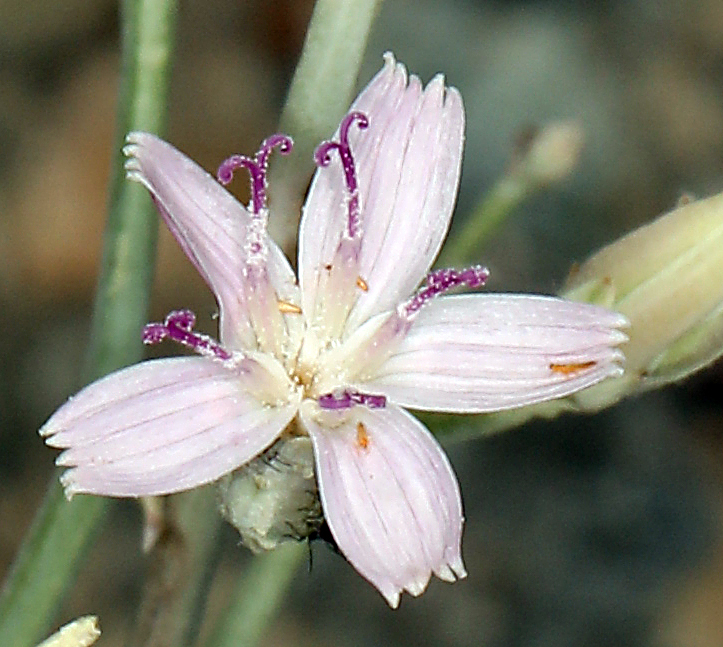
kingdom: Plantae
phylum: Tracheophyta
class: Magnoliopsida
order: Asterales
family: Asteraceae
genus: Stephanomeria
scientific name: Stephanomeria pauciflora
